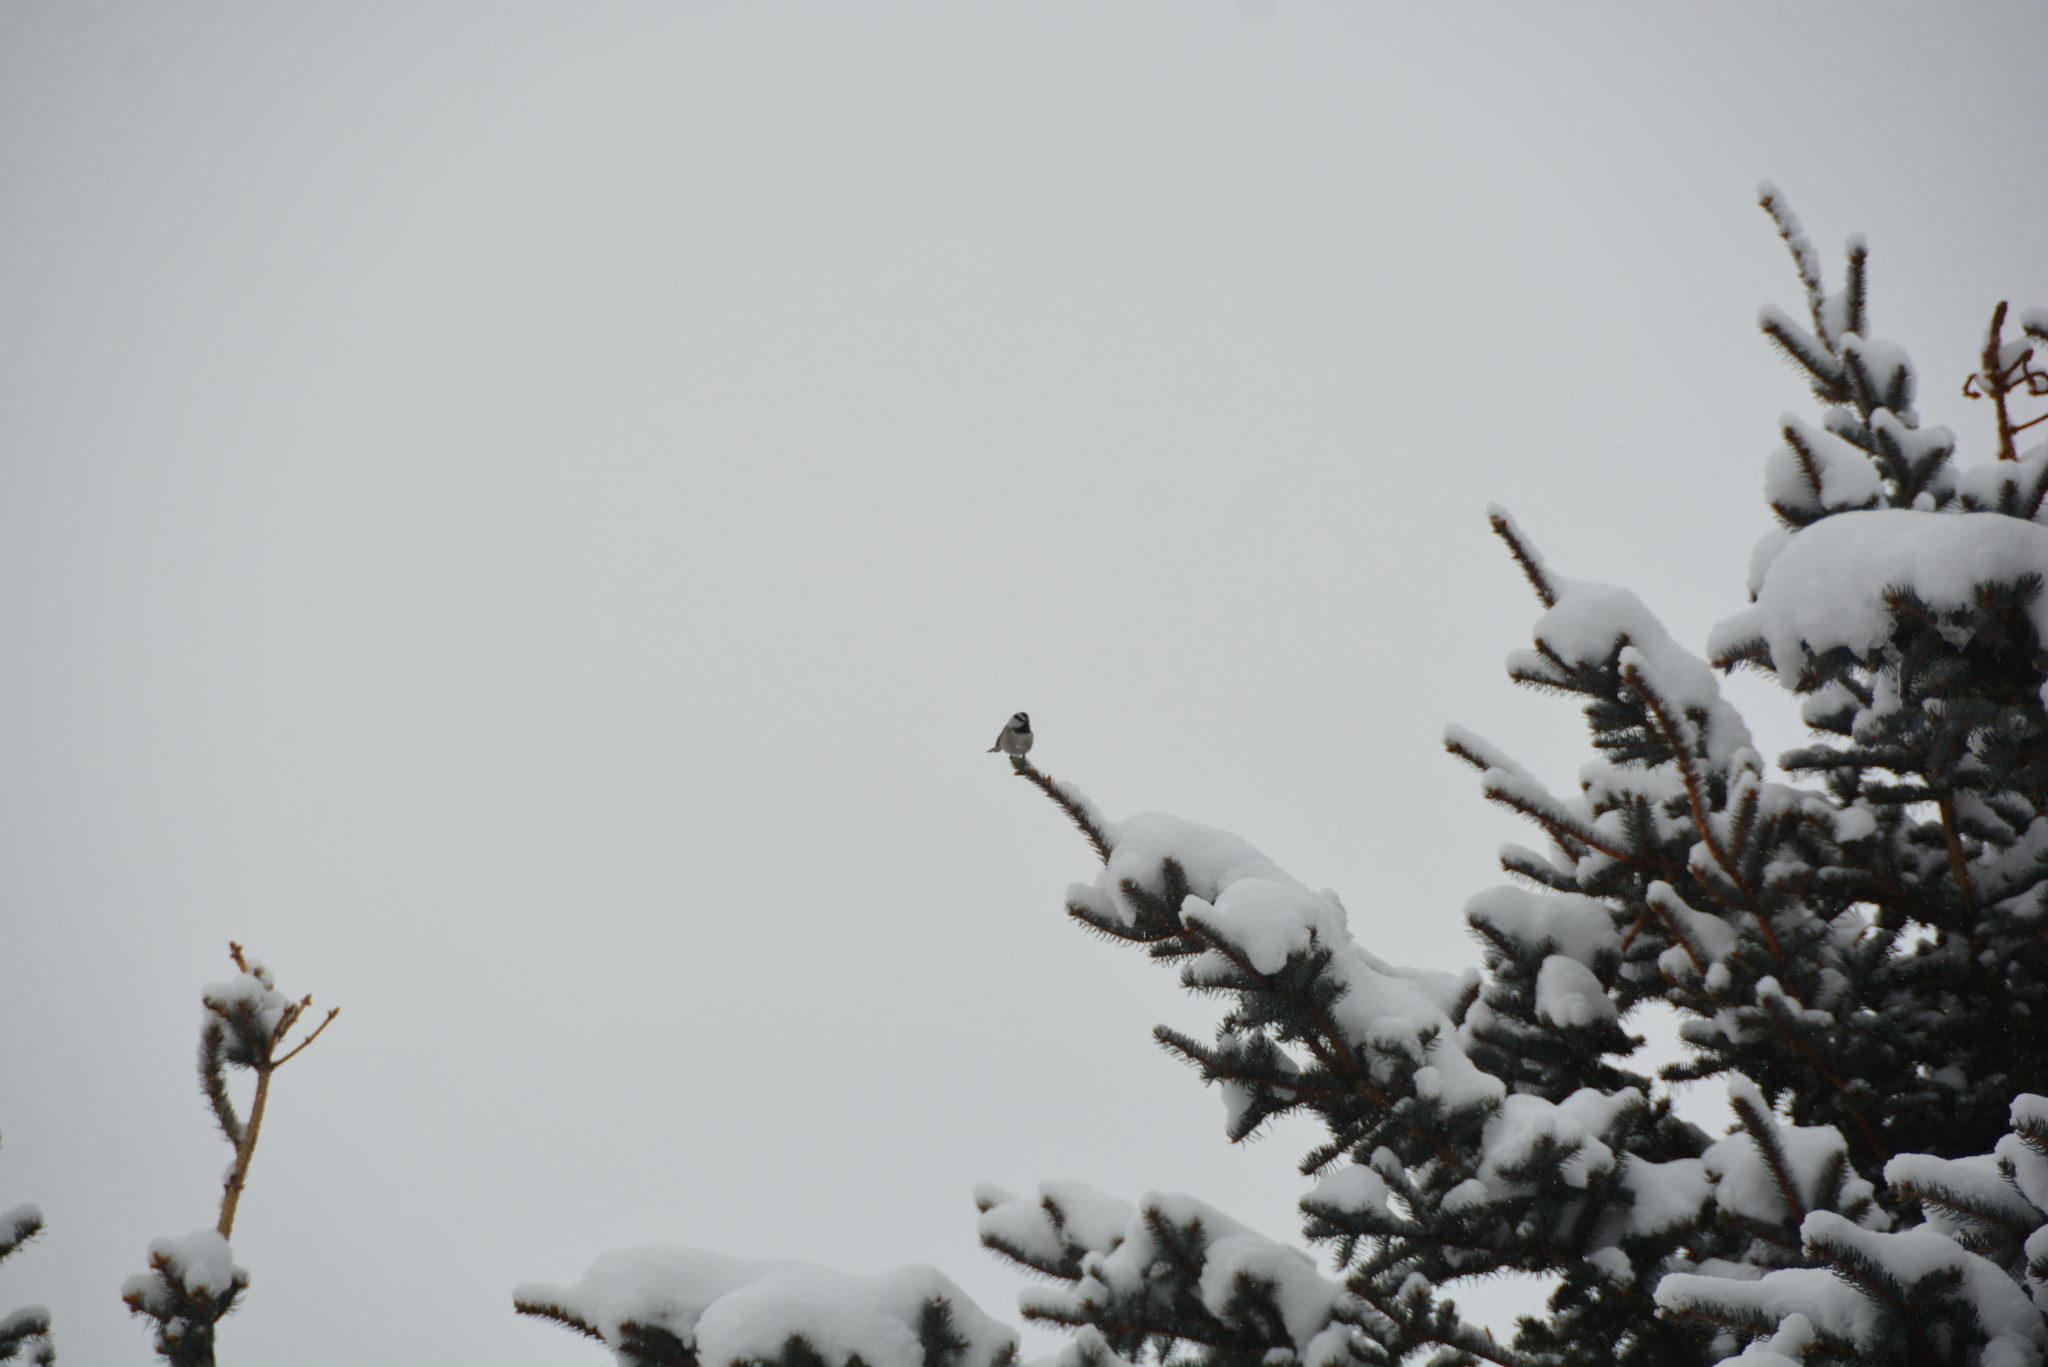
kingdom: Animalia
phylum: Chordata
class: Aves
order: Passeriformes
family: Paridae
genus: Poecile
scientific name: Poecile gambeli
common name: Mountain chickadee
